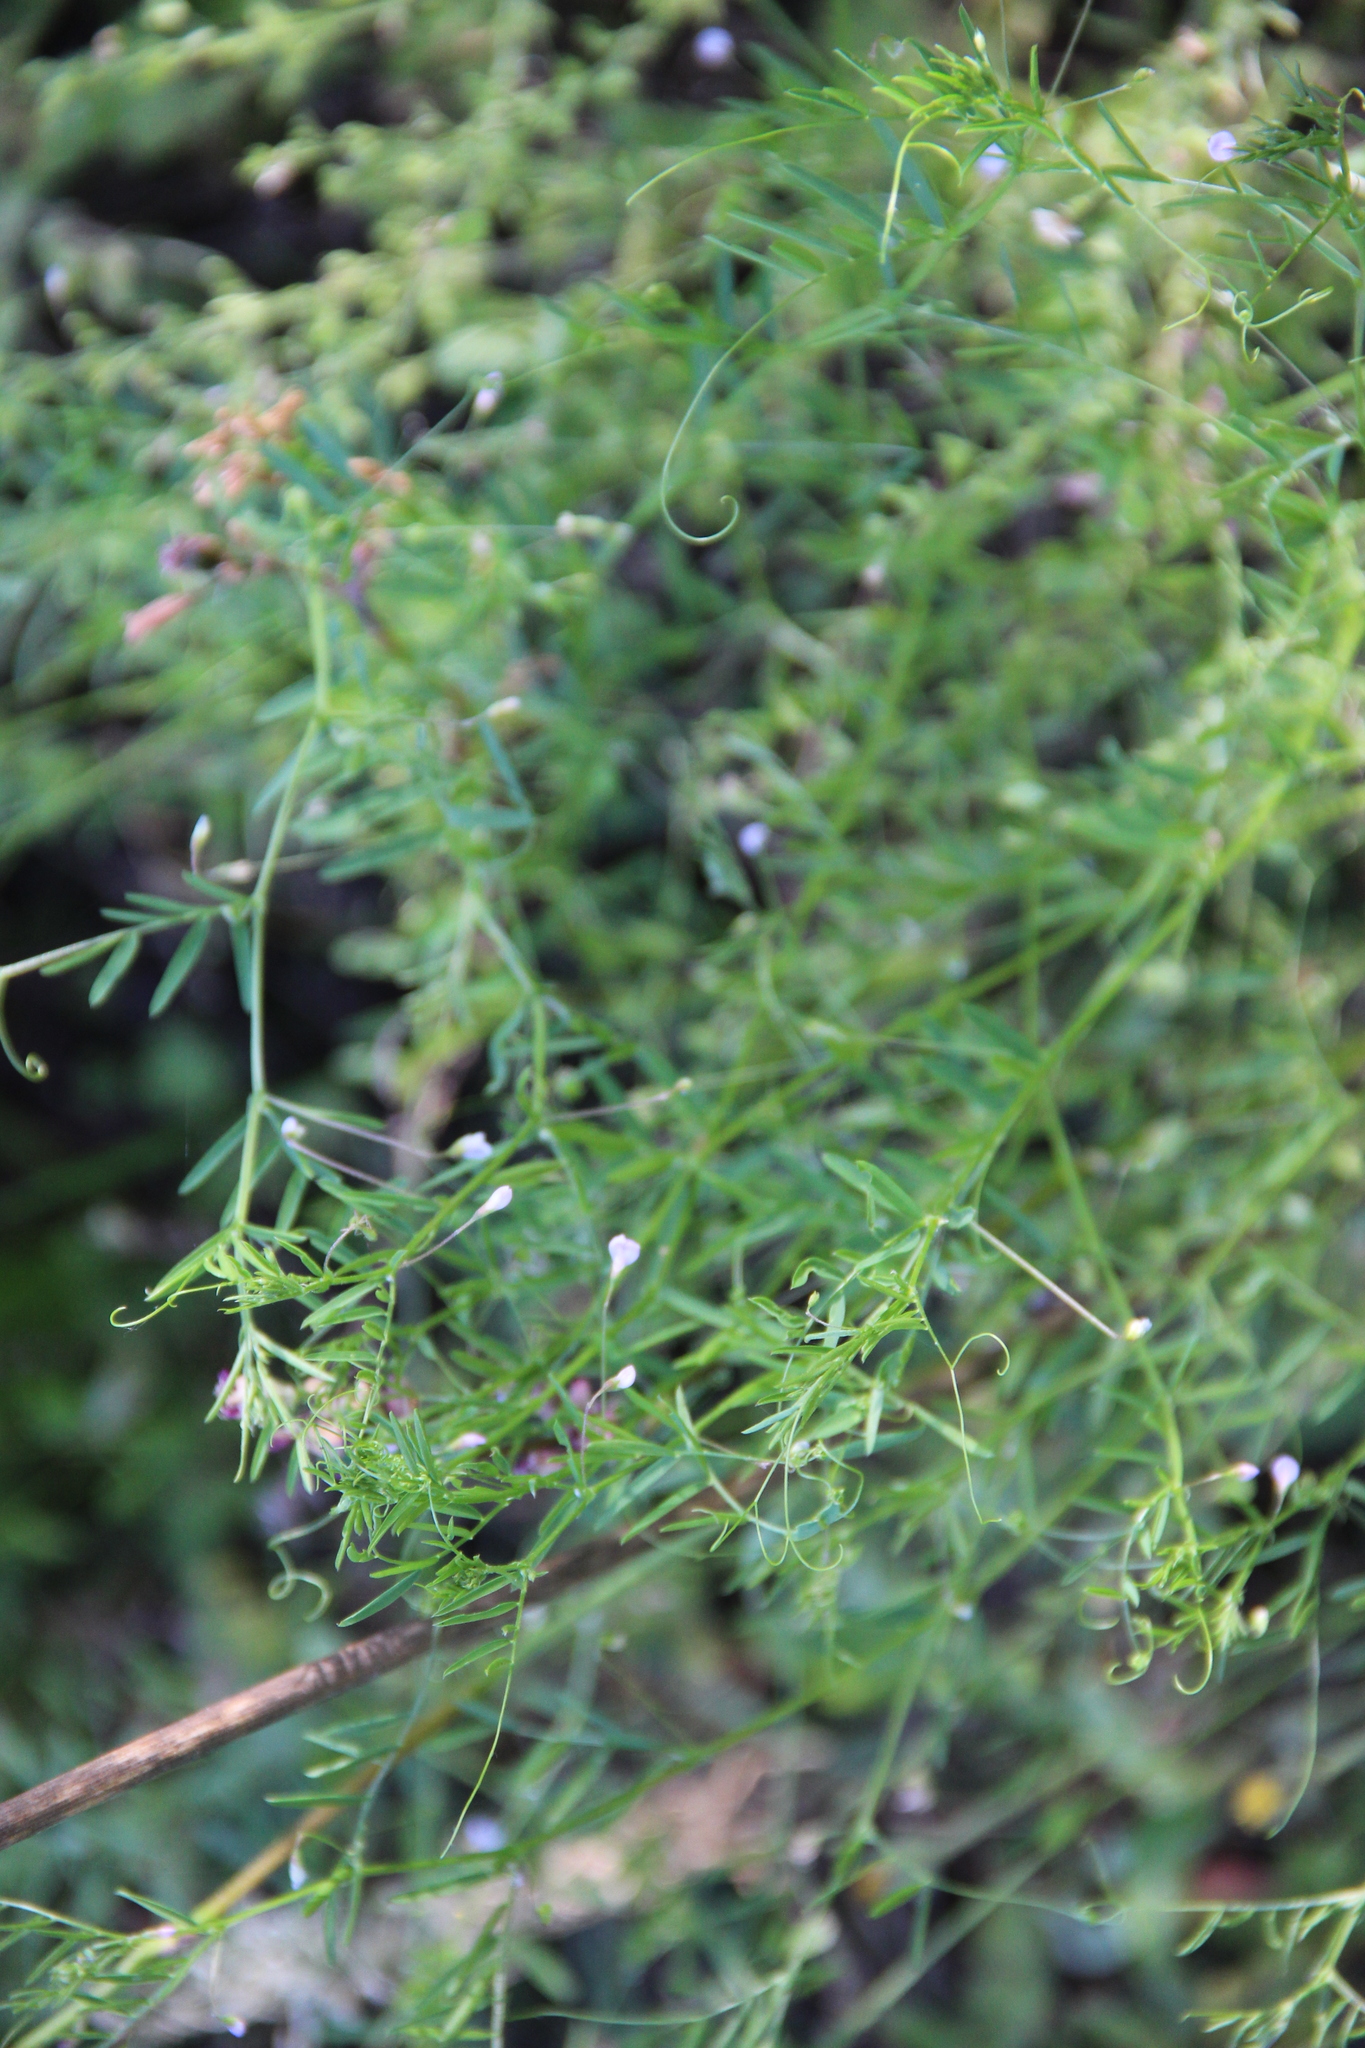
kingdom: Plantae
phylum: Tracheophyta
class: Magnoliopsida
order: Fabales
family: Fabaceae
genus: Vicia
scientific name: Vicia tetrasperma
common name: Smooth tare
